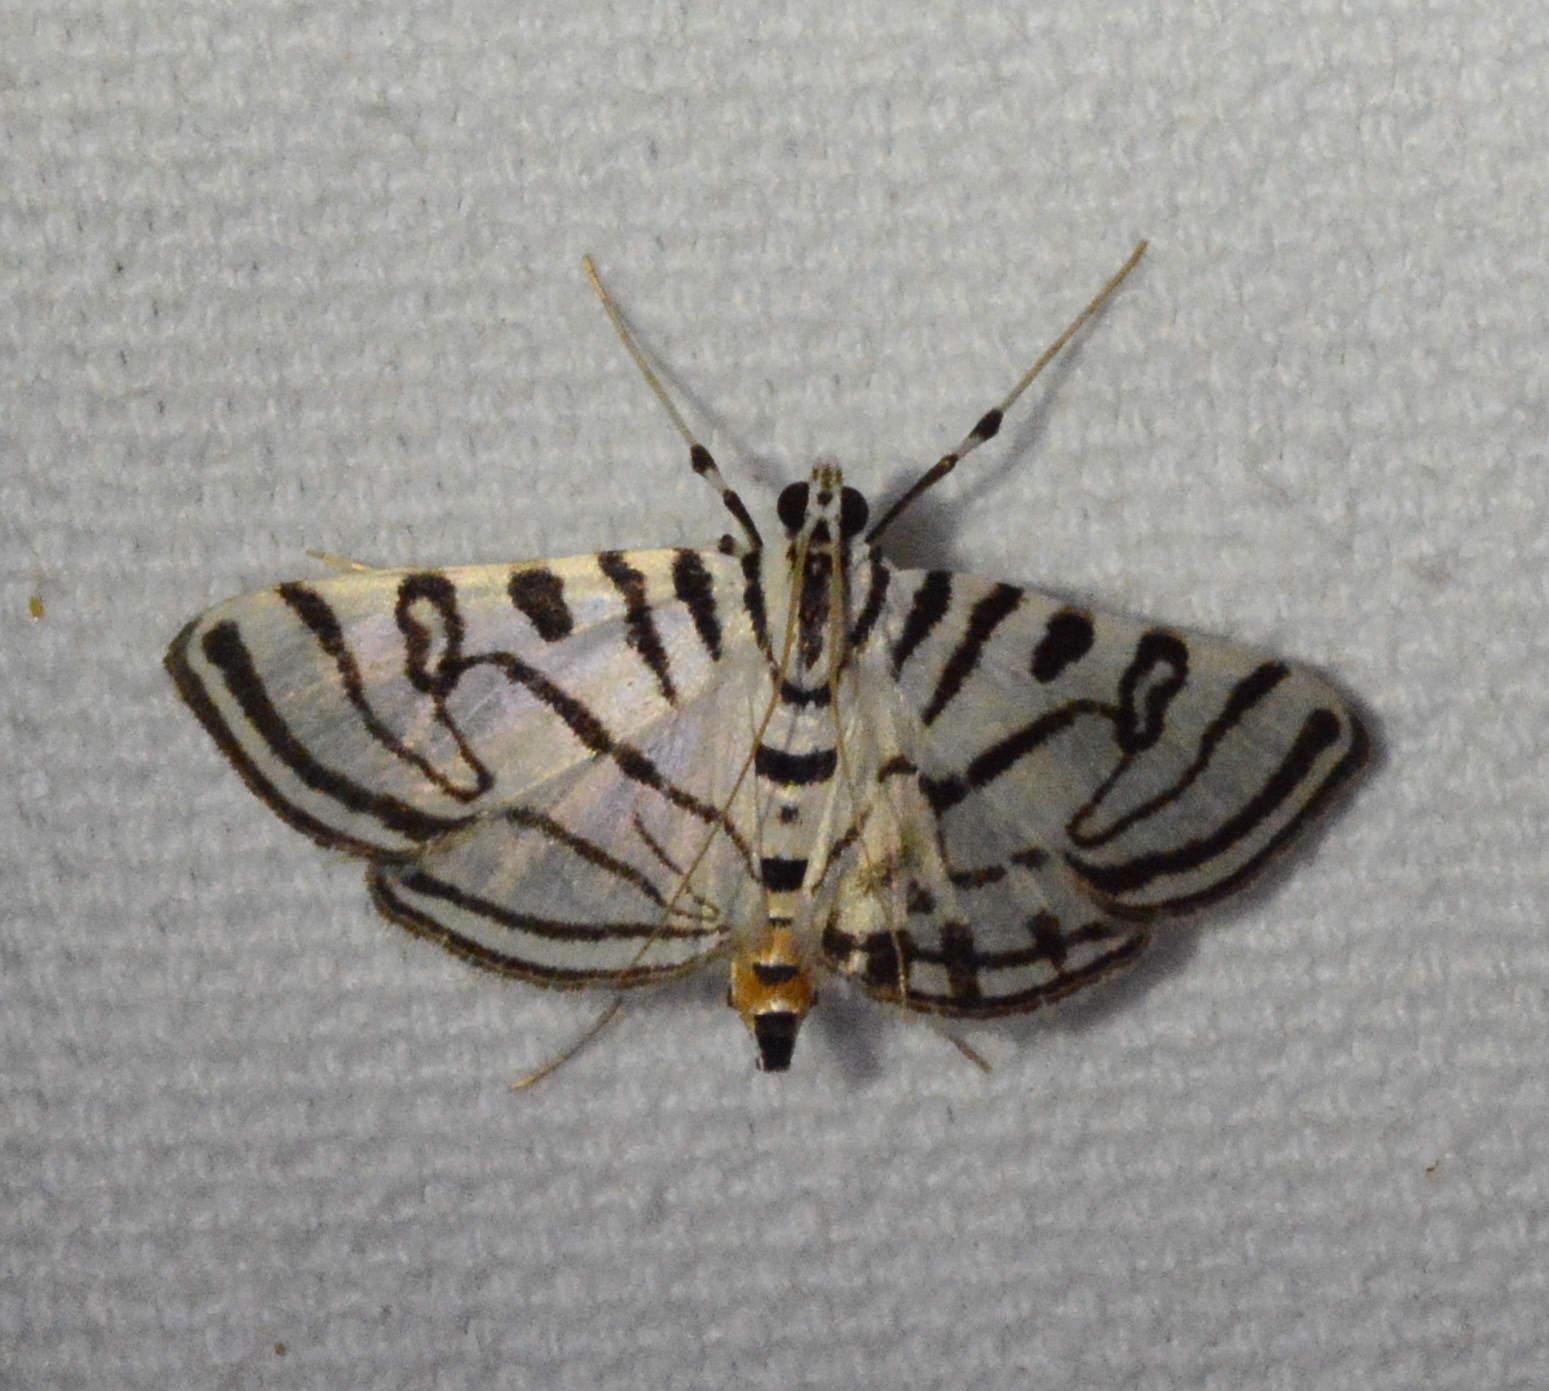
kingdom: Animalia
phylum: Arthropoda
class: Insecta
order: Lepidoptera
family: Crambidae
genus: Conchylodes
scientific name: Conchylodes ovulalis
